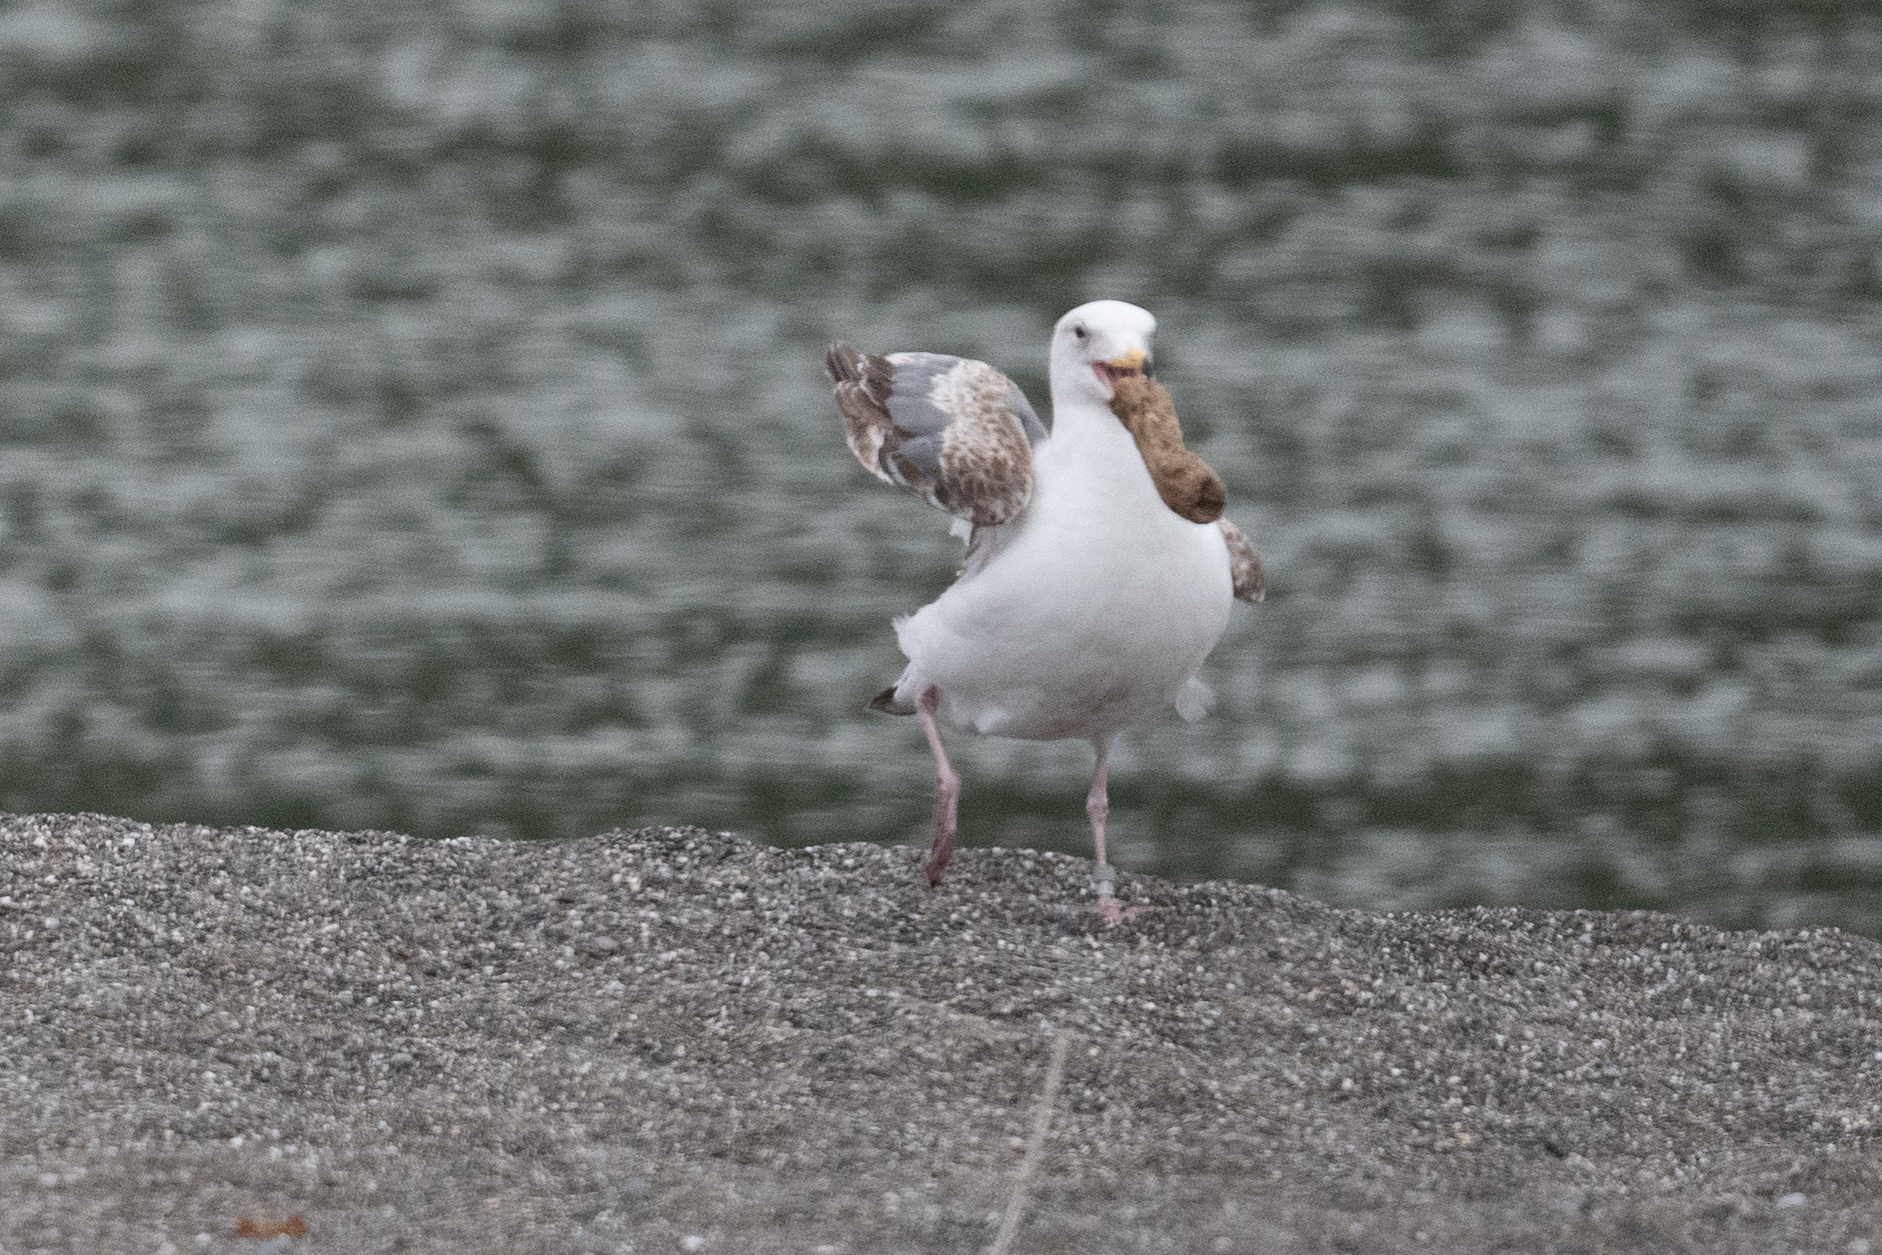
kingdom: Animalia
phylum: Chordata
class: Aves
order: Charadriiformes
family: Laridae
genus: Larus
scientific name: Larus occidentalis
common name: Western gull
